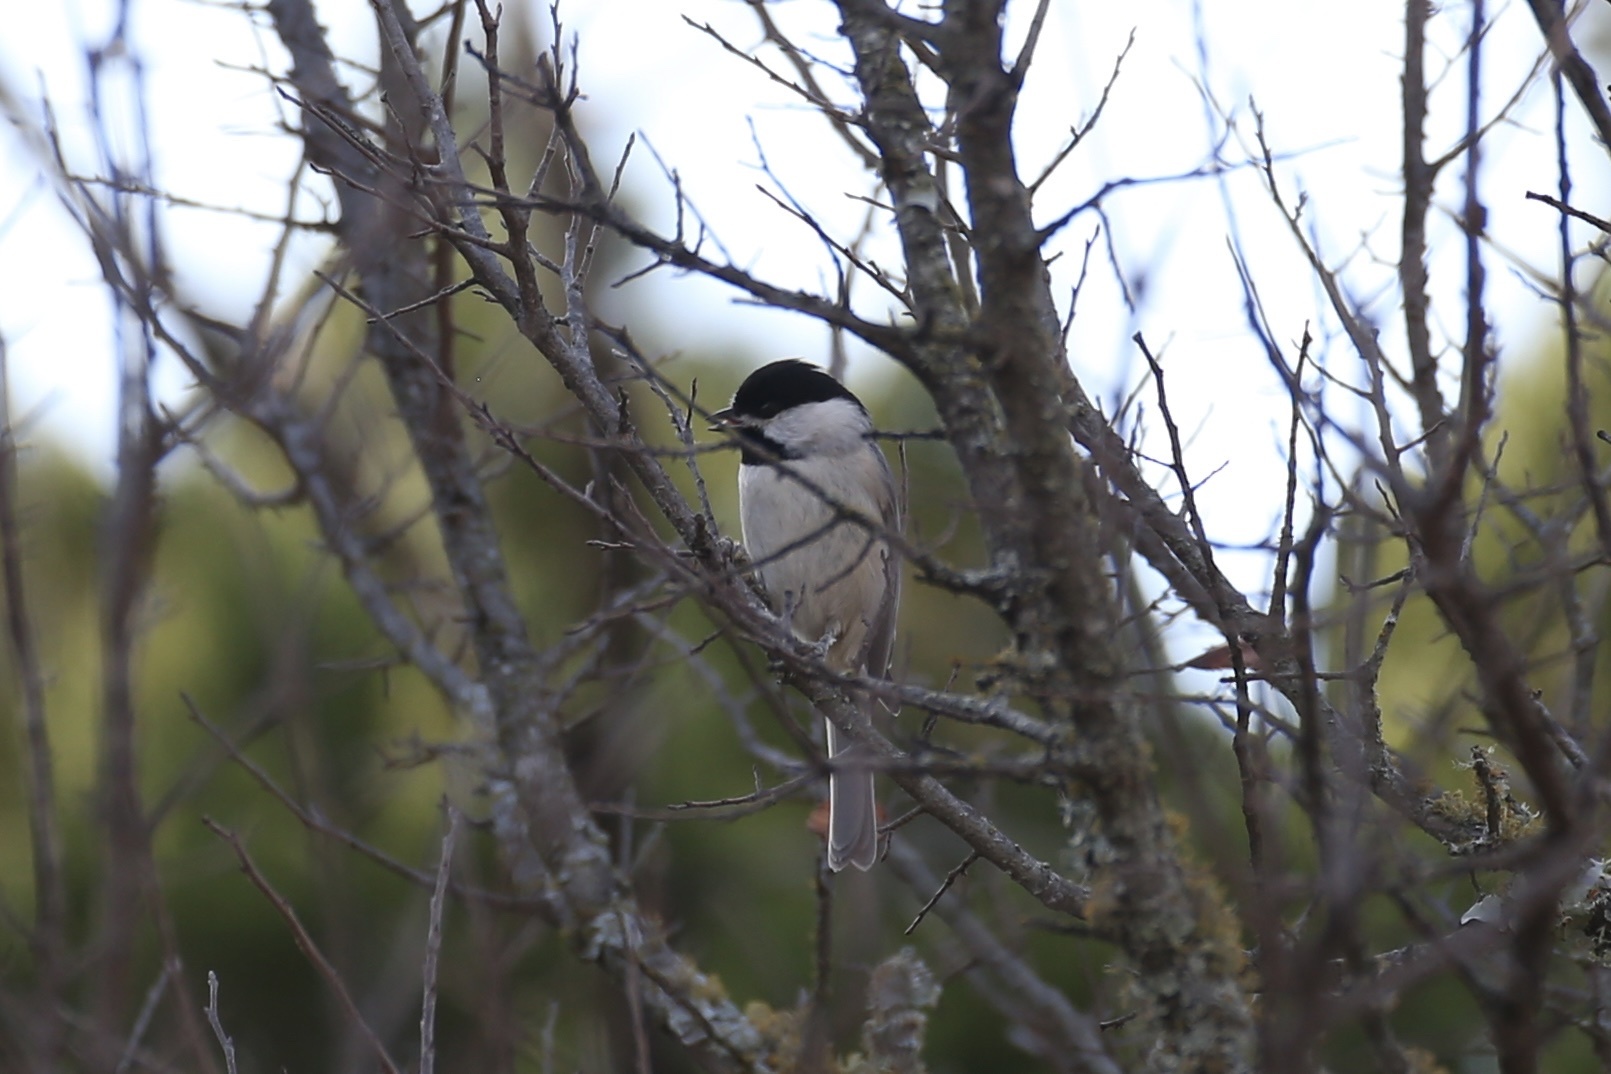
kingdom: Animalia
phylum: Chordata
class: Aves
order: Passeriformes
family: Paridae
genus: Poecile
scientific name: Poecile carolinensis
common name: Carolina chickadee
